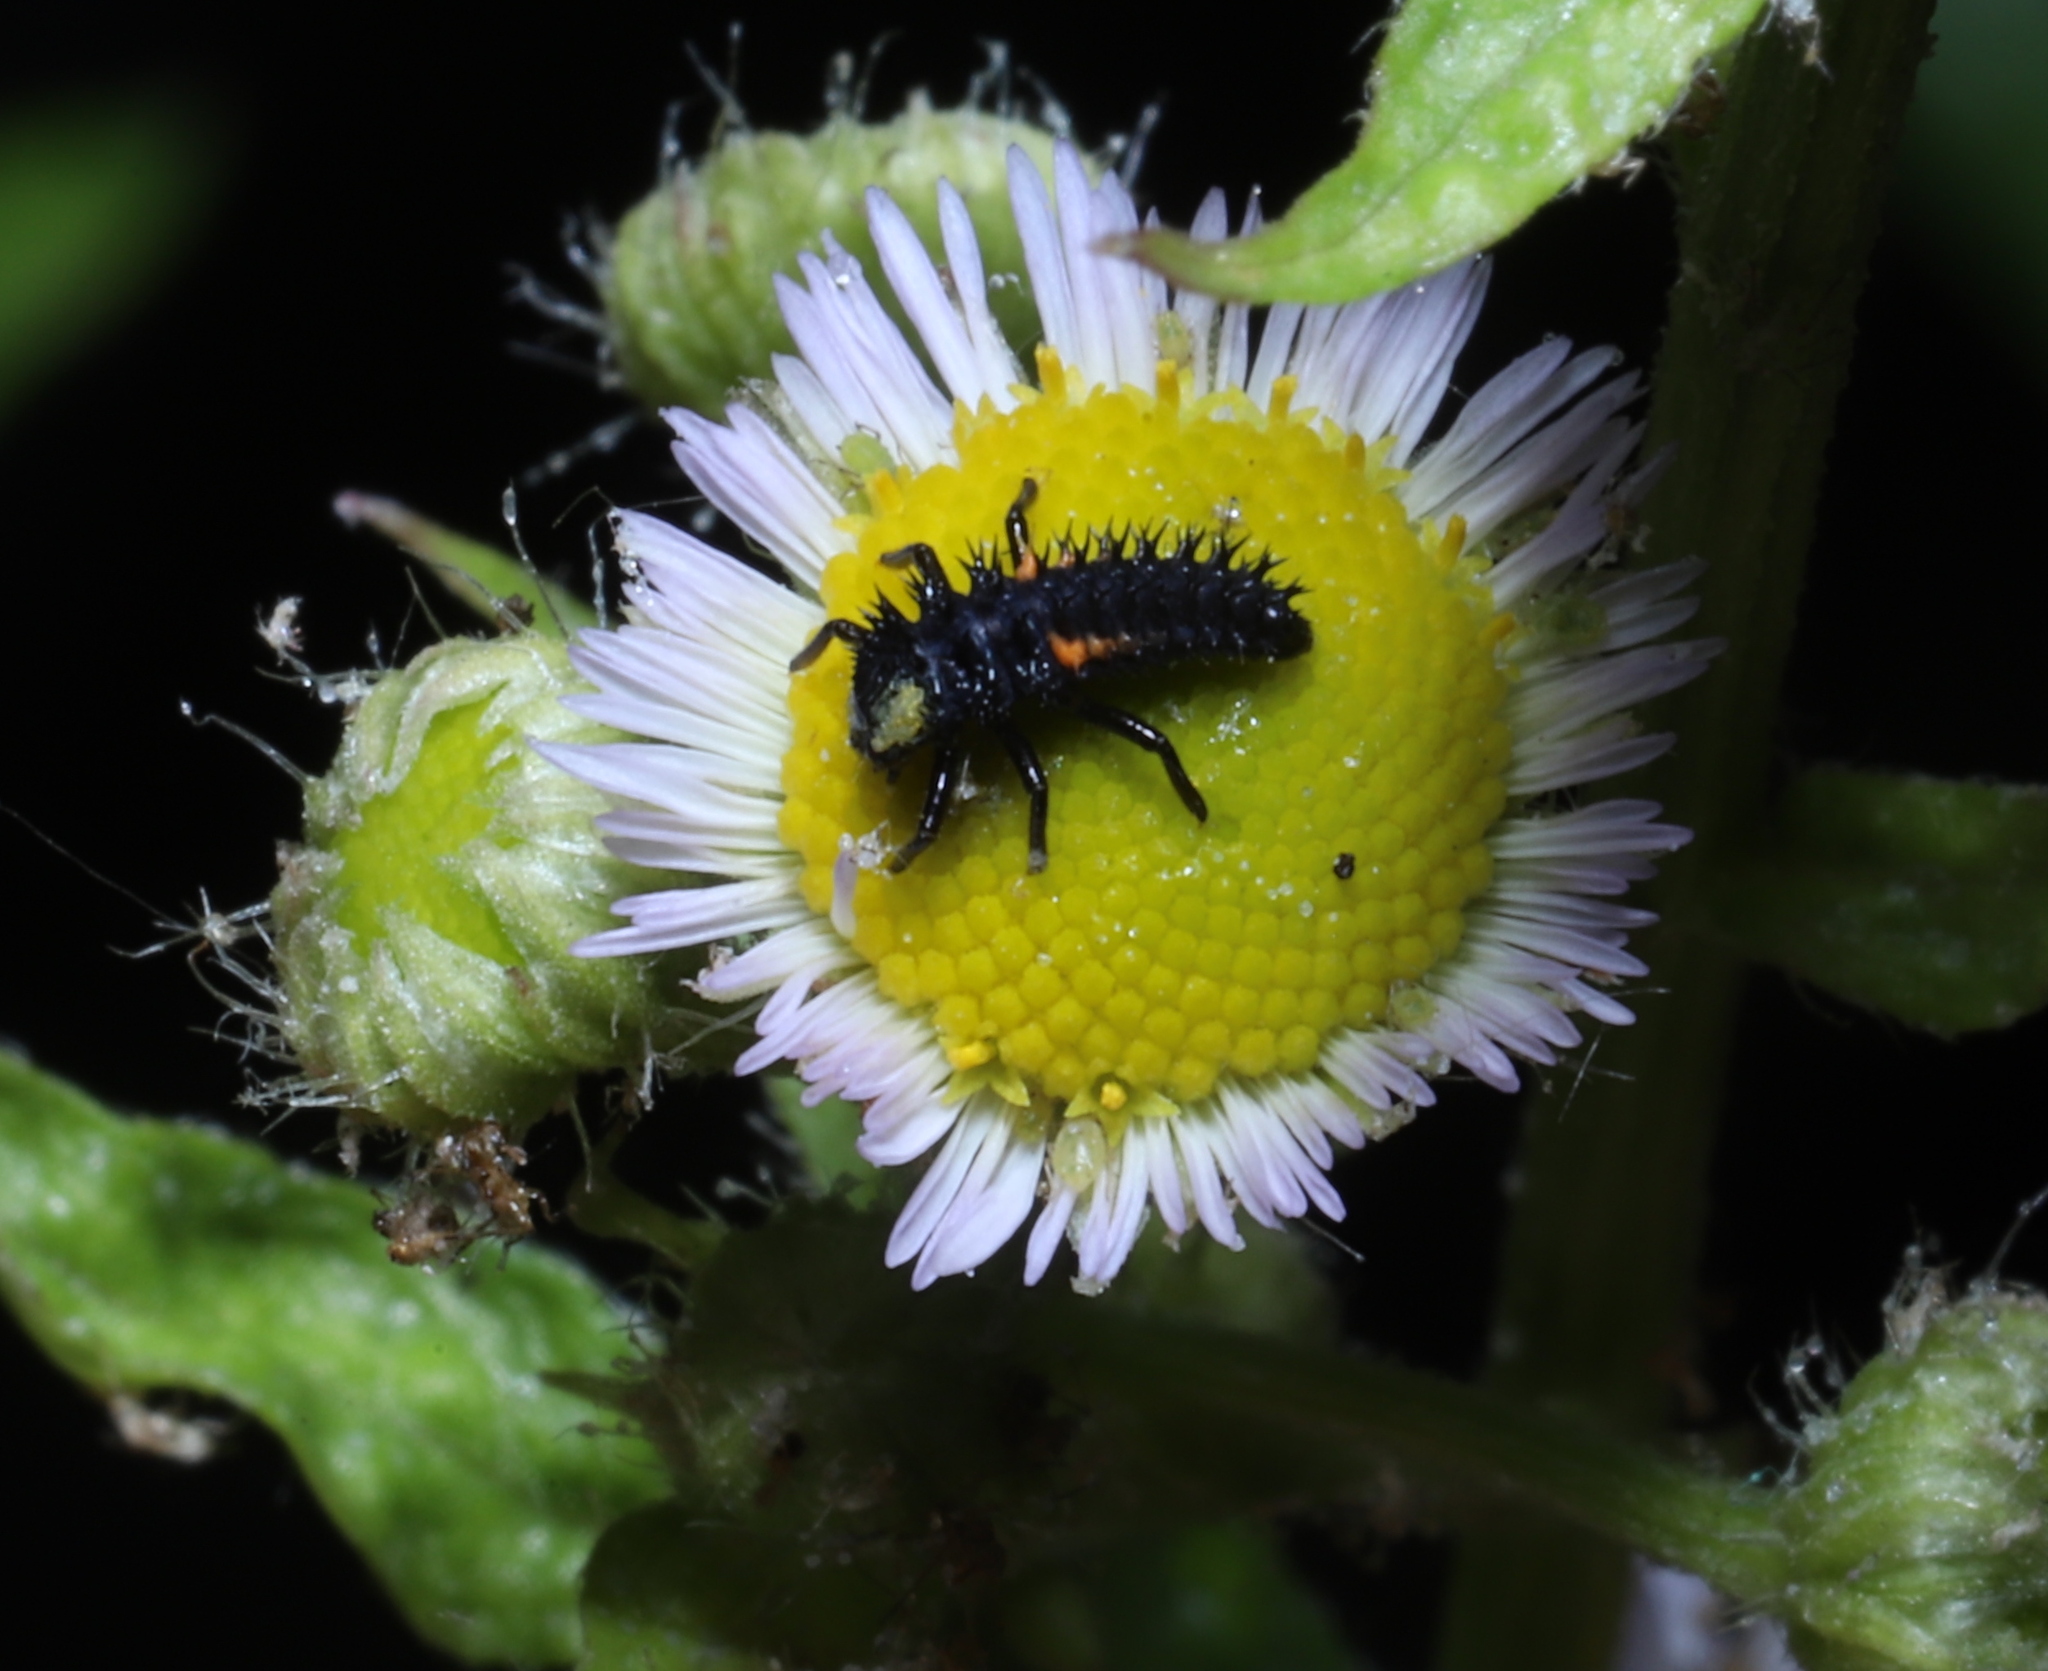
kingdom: Animalia
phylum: Arthropoda
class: Insecta
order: Coleoptera
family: Coccinellidae
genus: Harmonia
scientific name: Harmonia axyridis
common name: Harlequin ladybird
